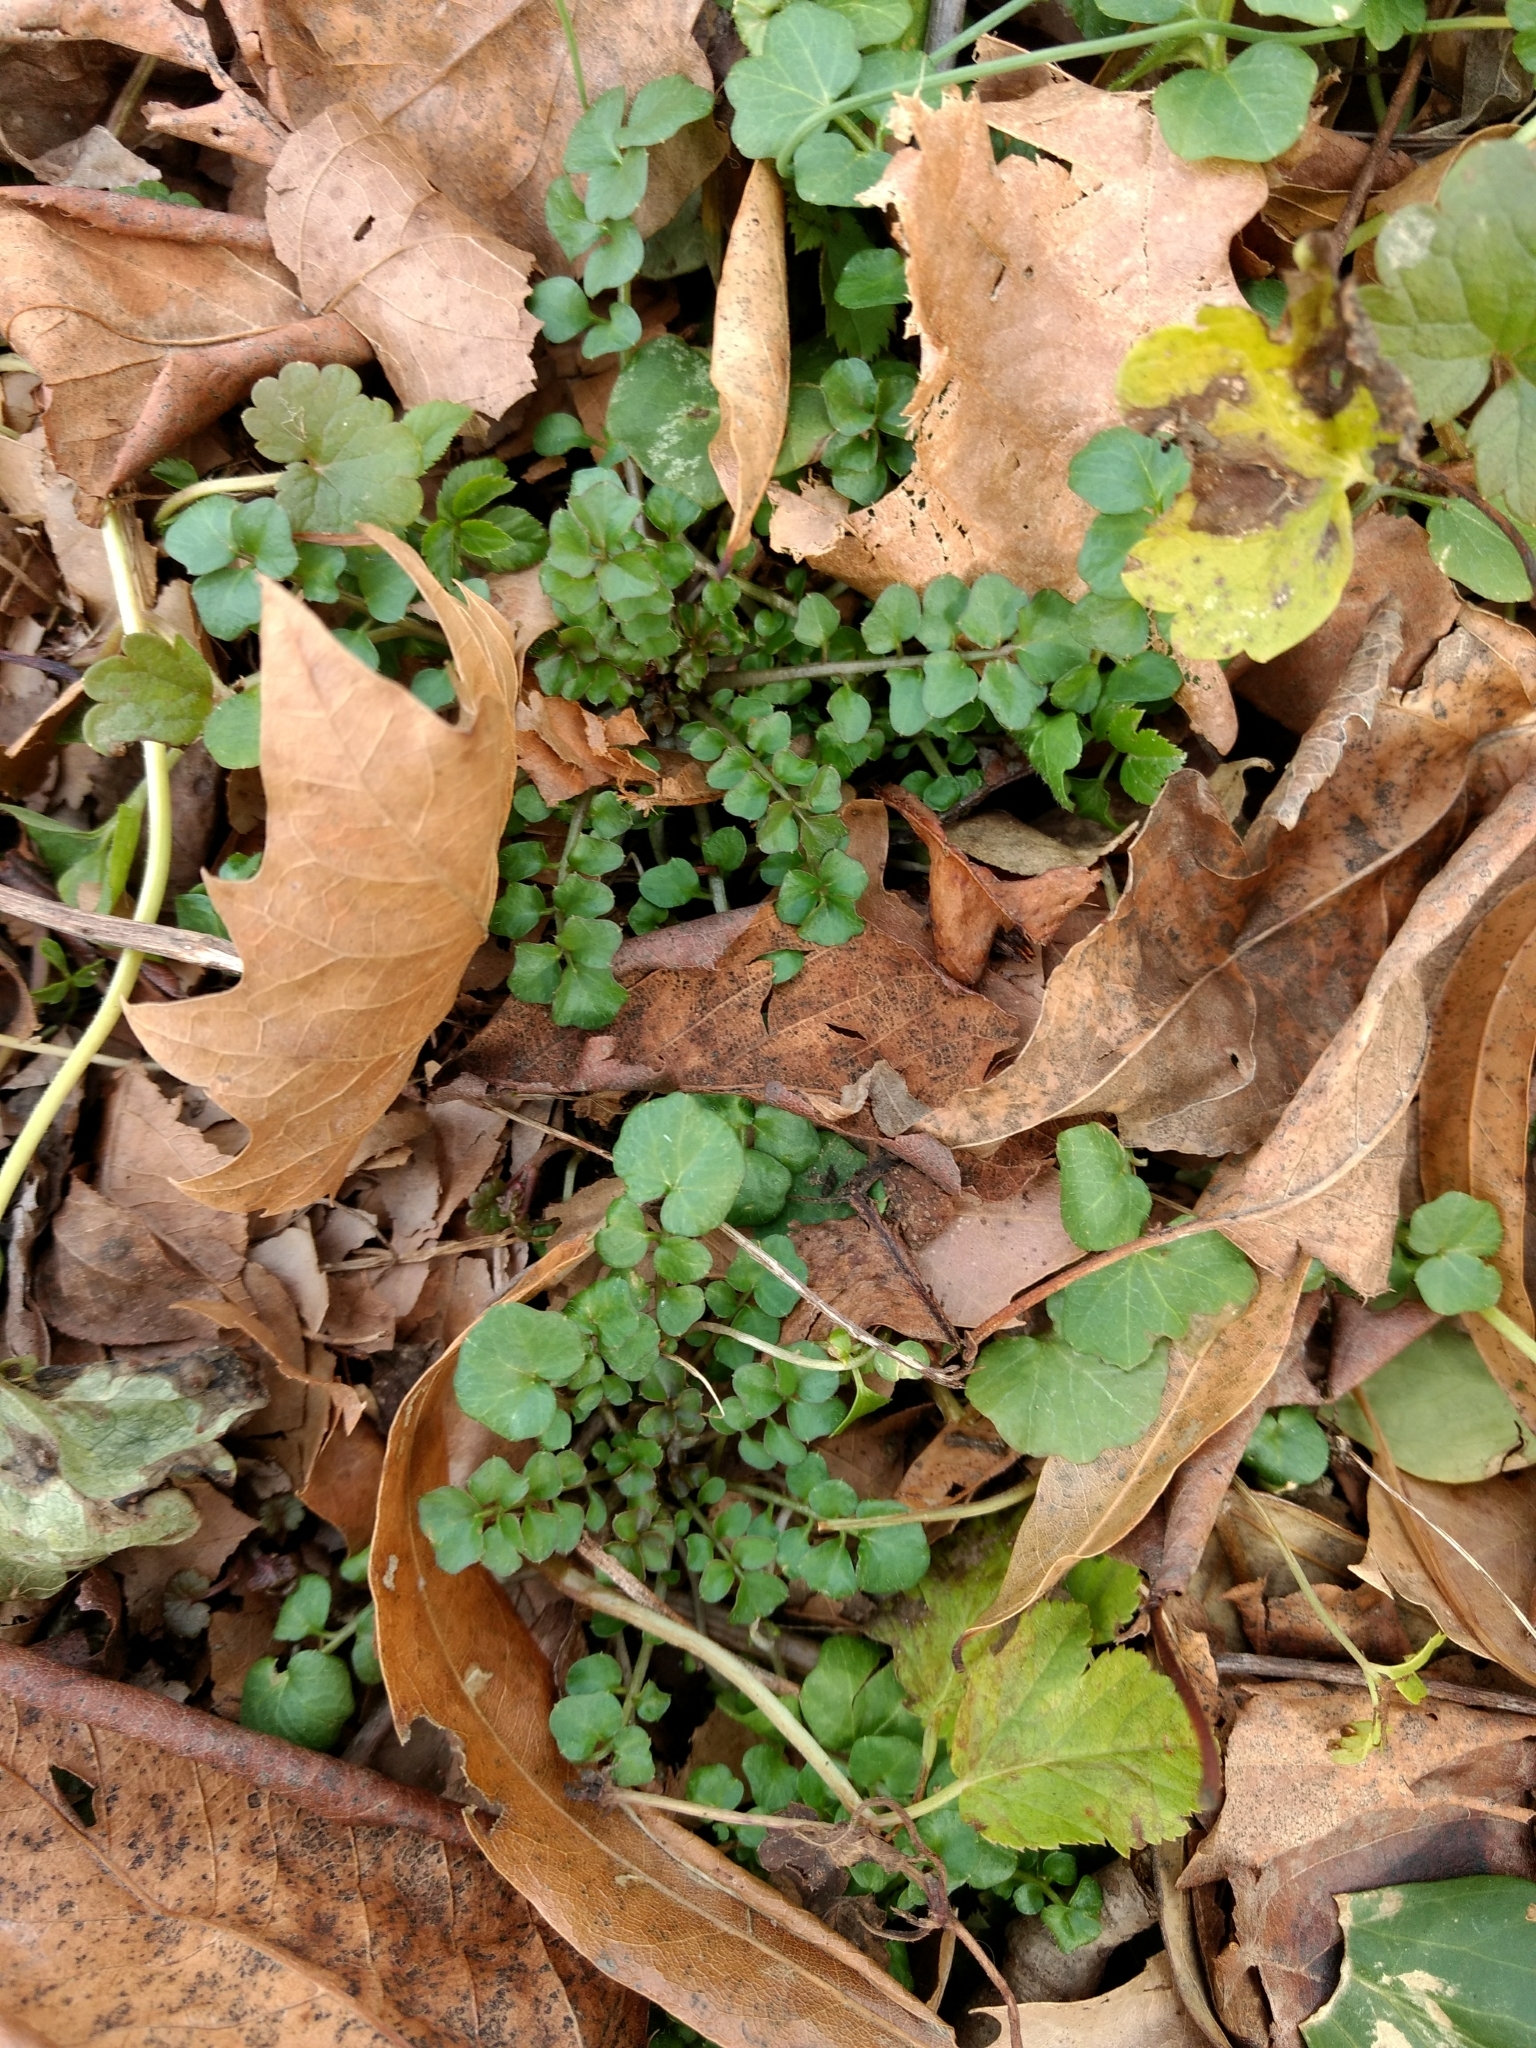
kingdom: Plantae
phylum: Tracheophyta
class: Magnoliopsida
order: Brassicales
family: Brassicaceae
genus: Cardamine
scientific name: Cardamine hirsuta
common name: Hairy bittercress
